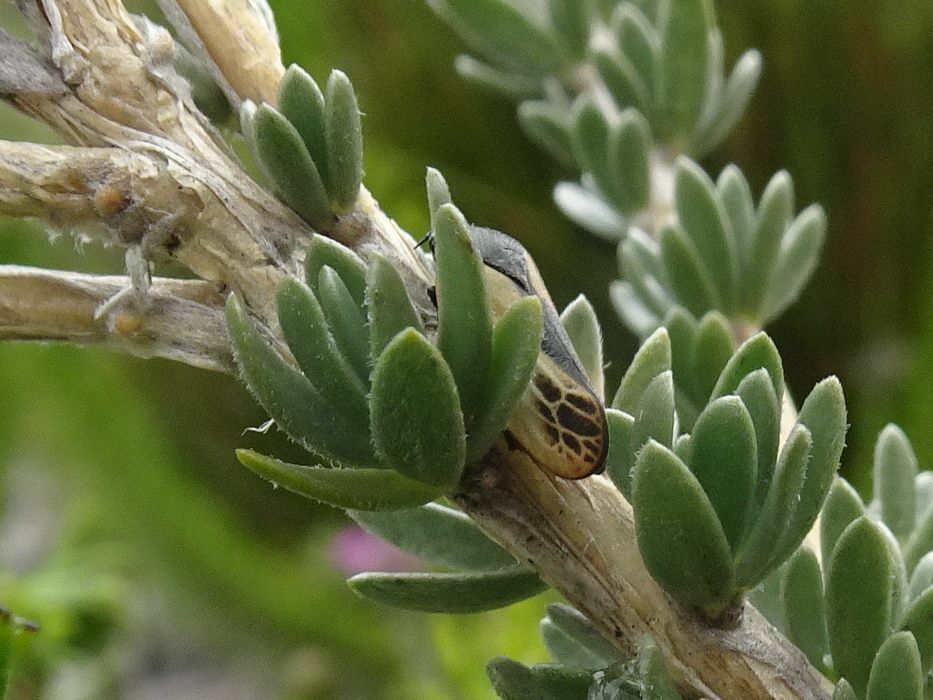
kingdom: Animalia
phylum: Arthropoda
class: Insecta
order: Hemiptera
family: Cercopidae
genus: Rhinaulax
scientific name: Rhinaulax analis
